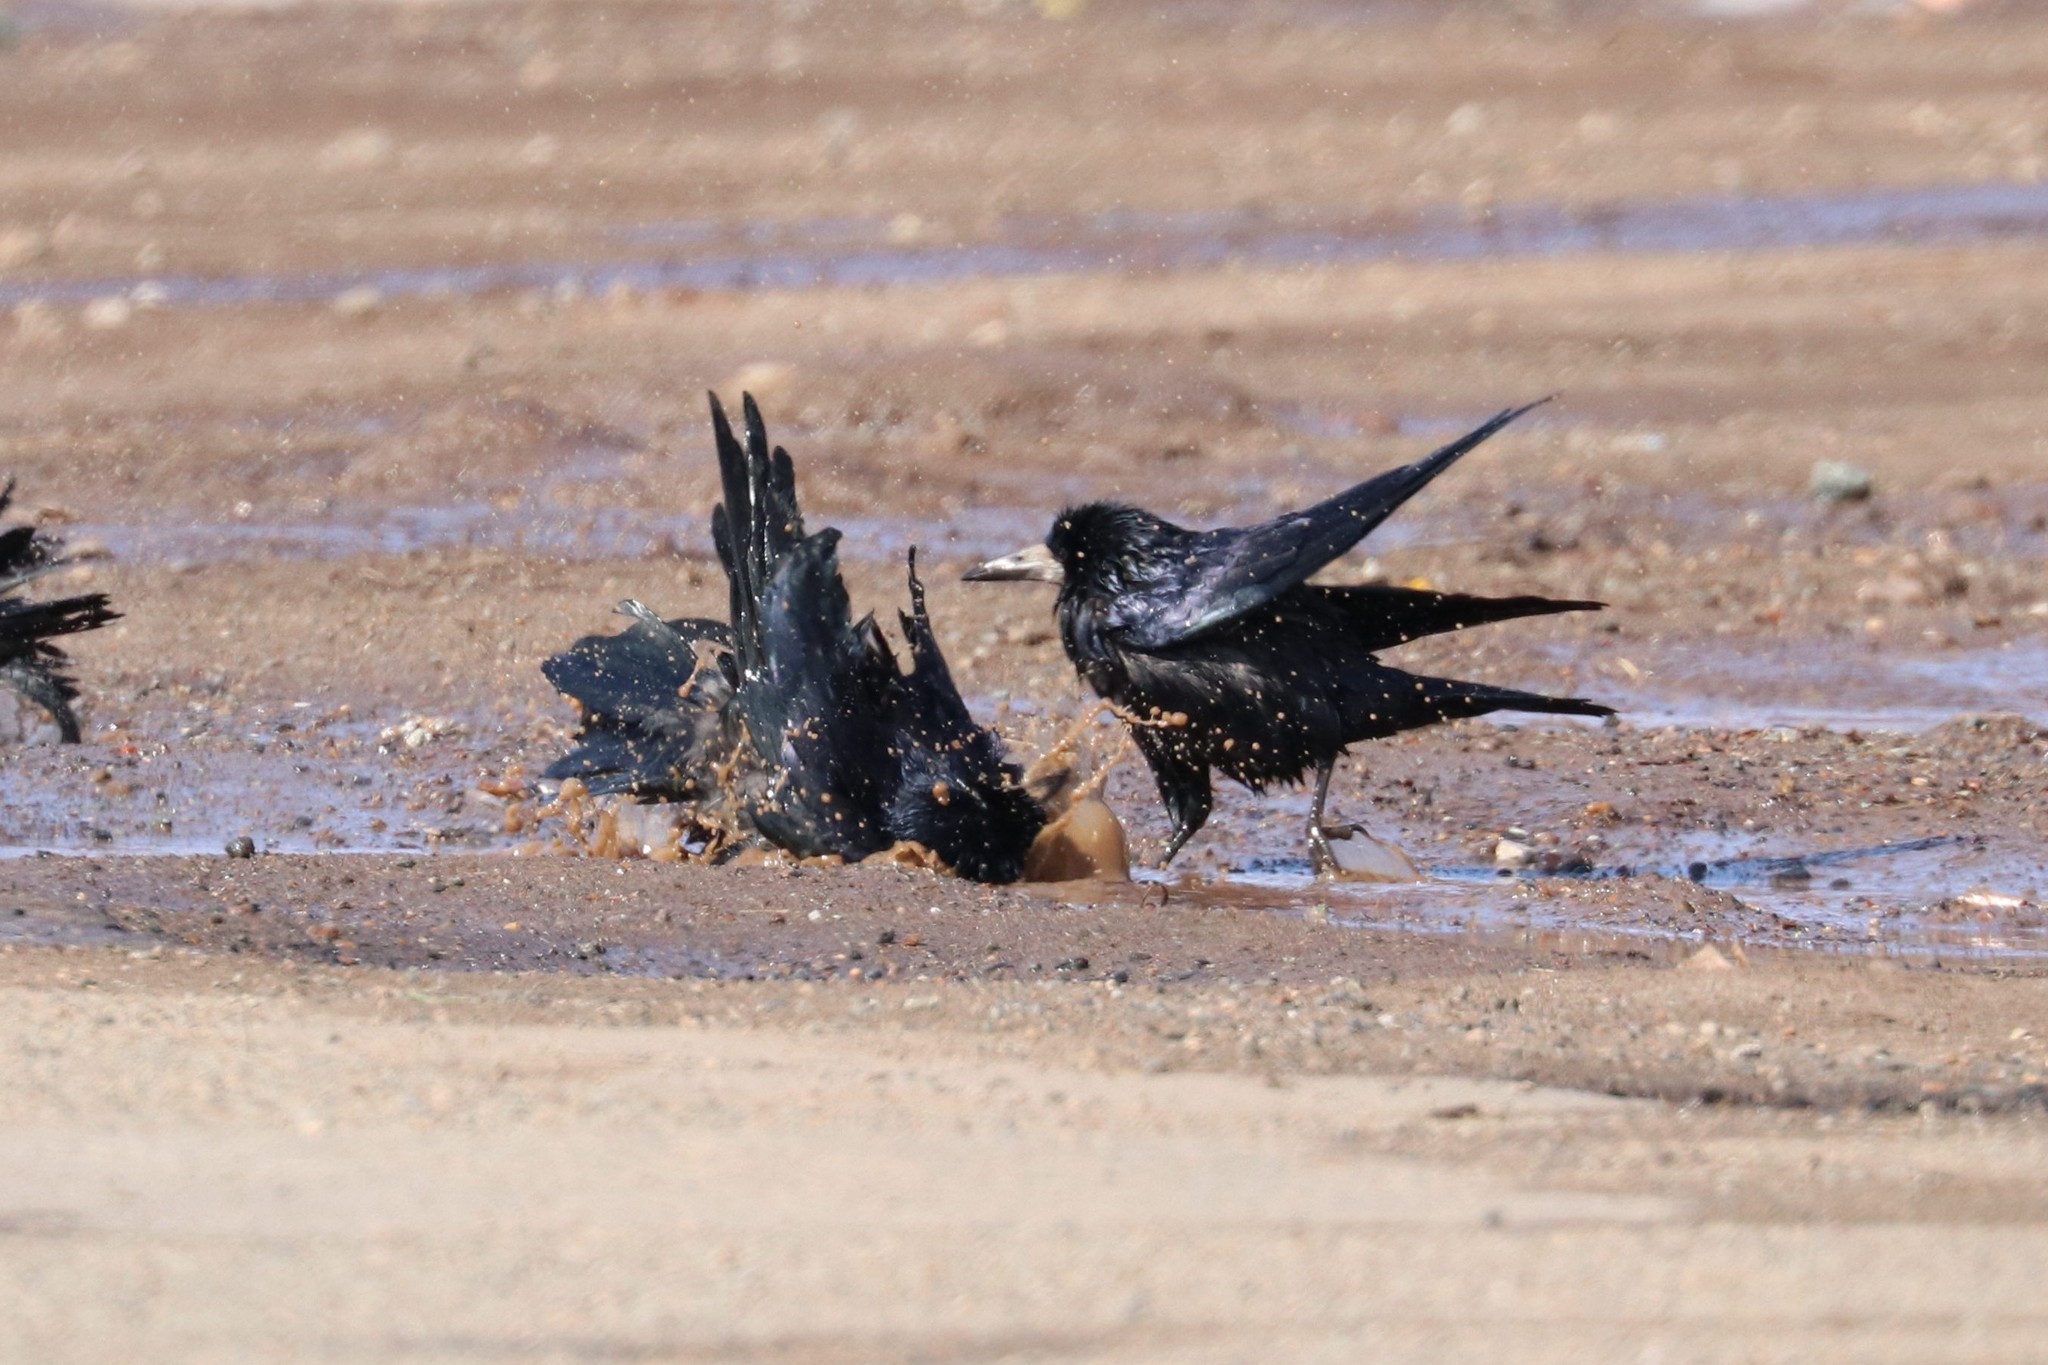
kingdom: Animalia
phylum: Chordata
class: Aves
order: Passeriformes
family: Corvidae
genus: Corvus
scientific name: Corvus frugilegus
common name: Rook
